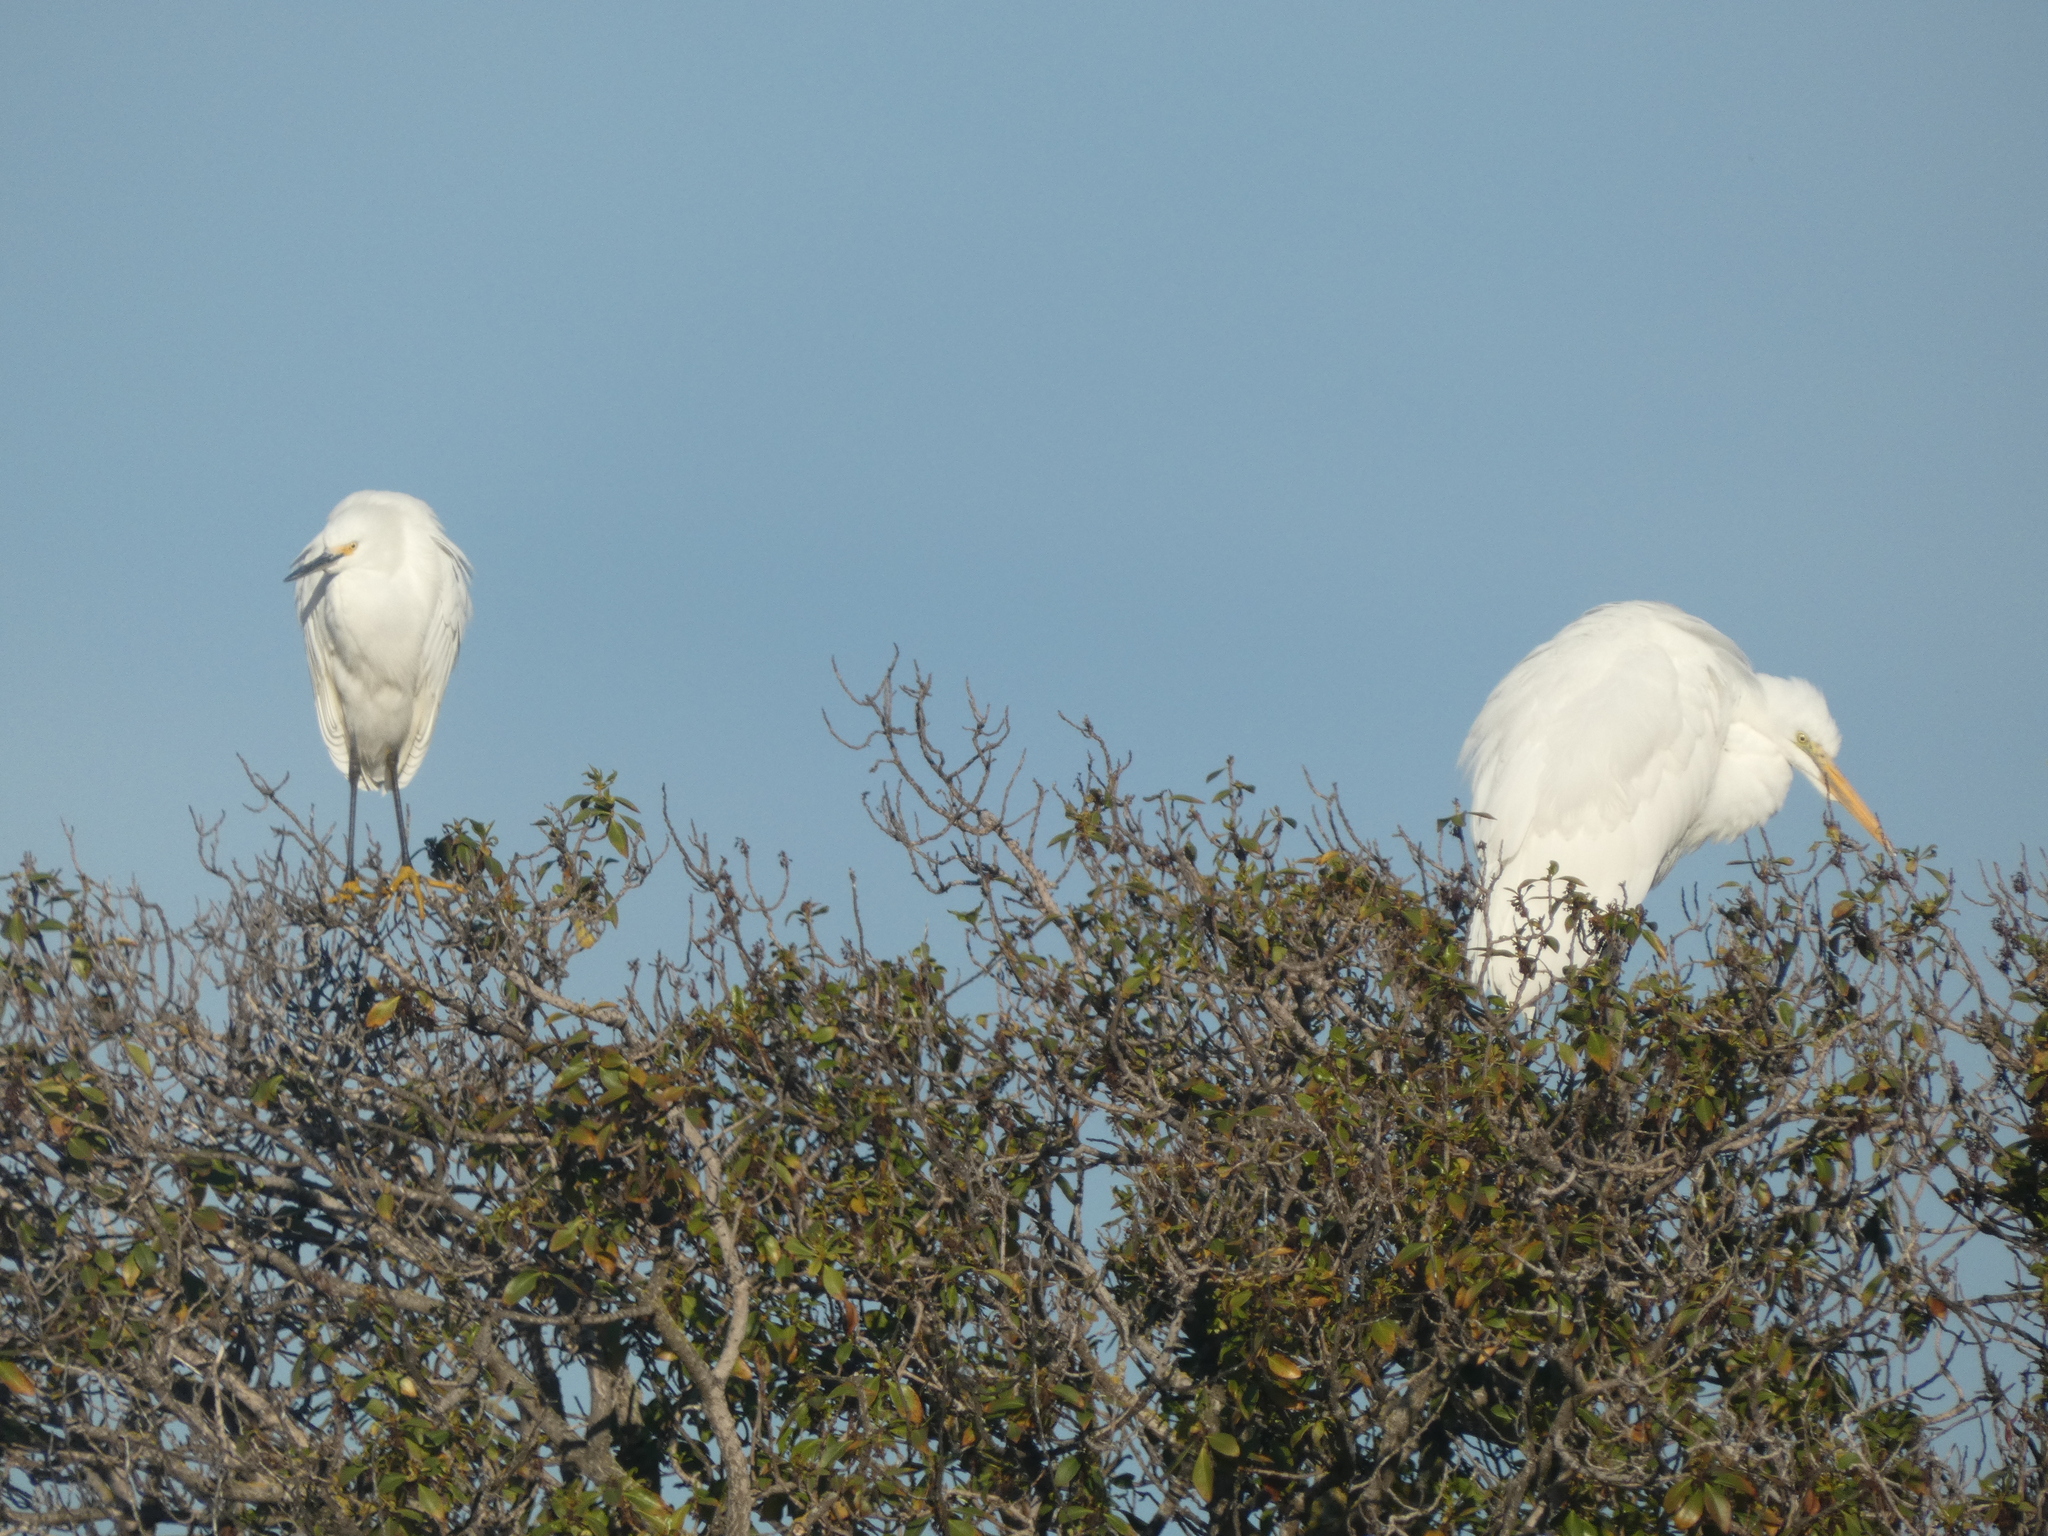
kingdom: Animalia
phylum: Chordata
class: Aves
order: Pelecaniformes
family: Ardeidae
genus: Egretta
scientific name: Egretta thula
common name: Snowy egret
